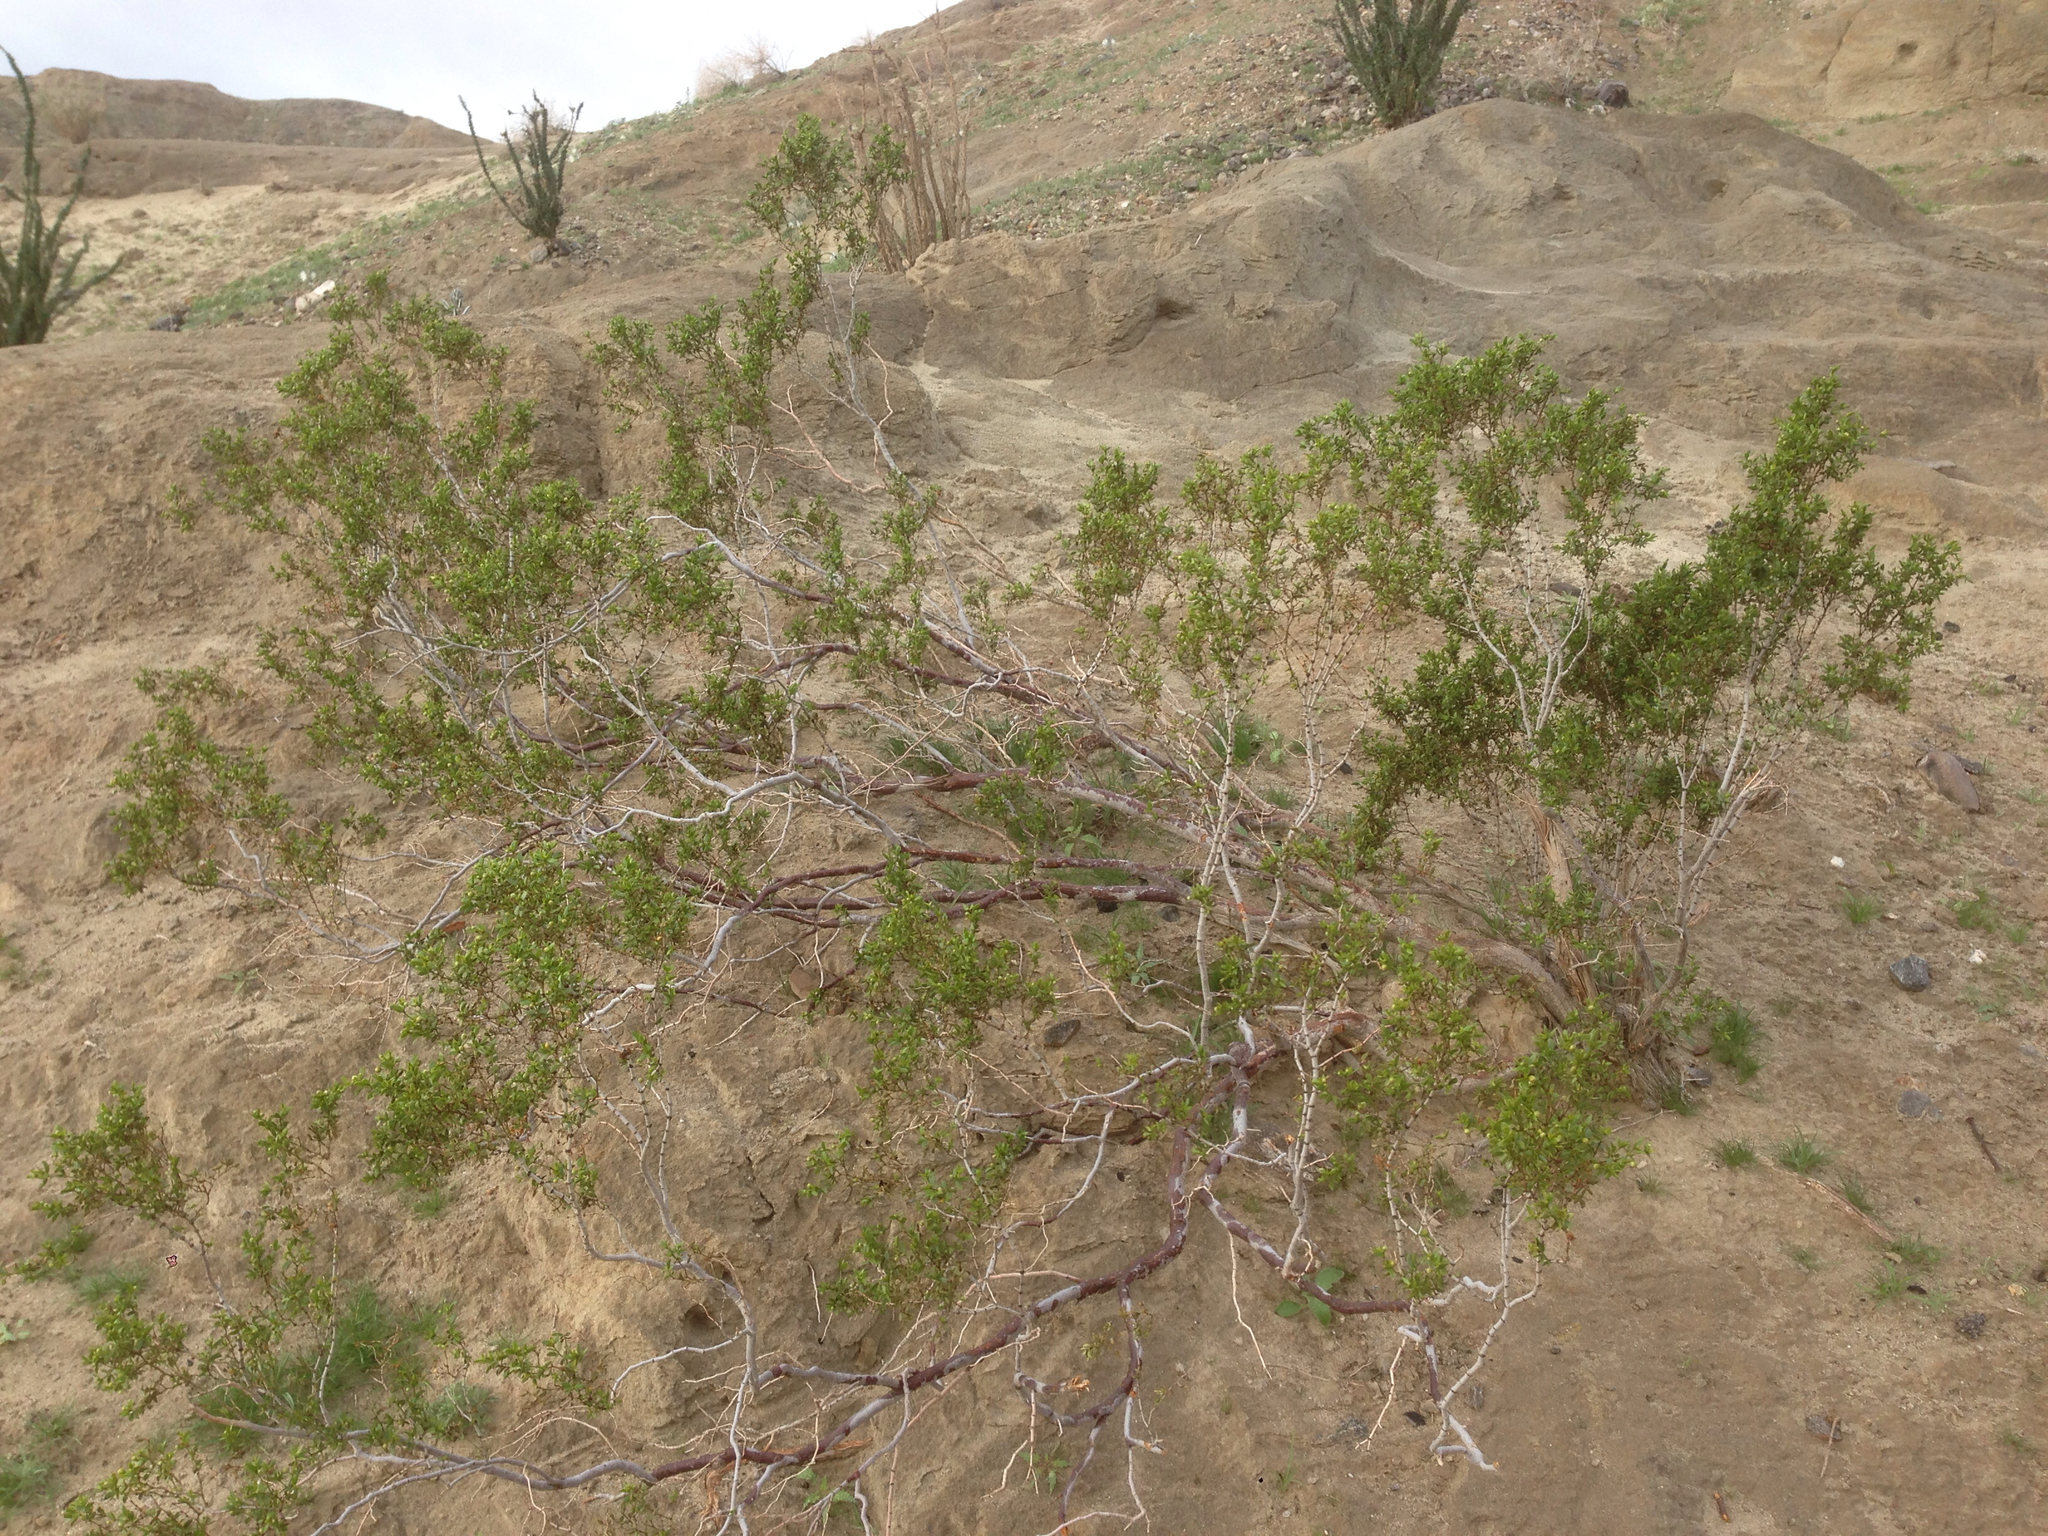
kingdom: Plantae
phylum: Tracheophyta
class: Magnoliopsida
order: Zygophyllales
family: Zygophyllaceae
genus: Larrea
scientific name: Larrea tridentata
